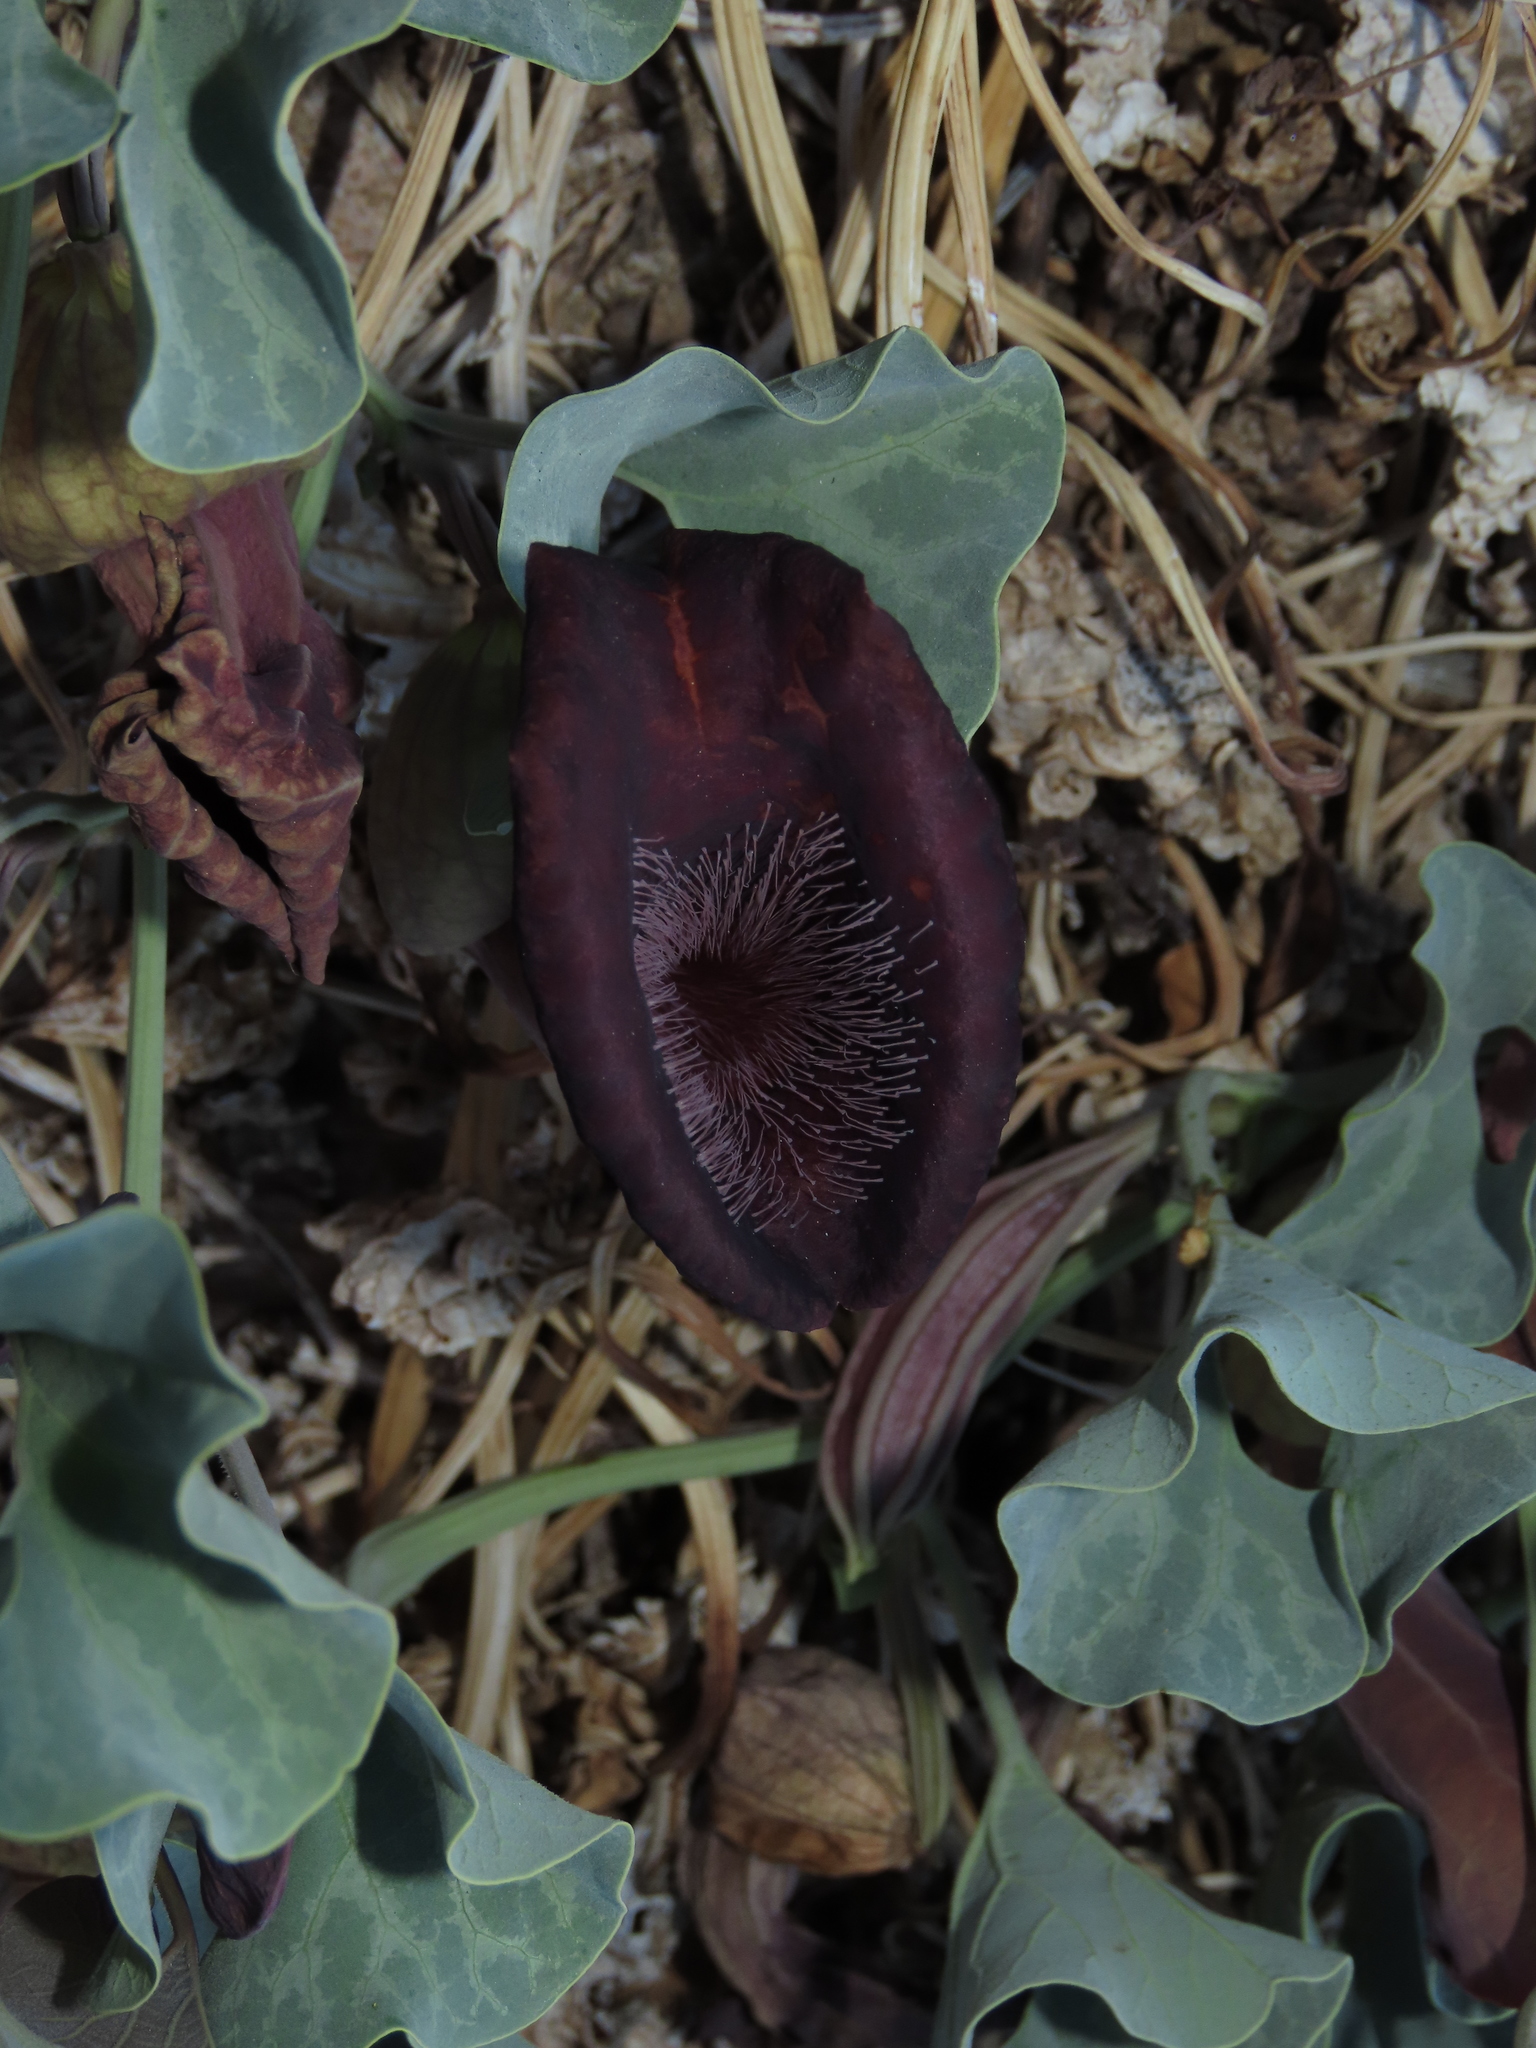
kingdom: Plantae
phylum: Tracheophyta
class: Magnoliopsida
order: Piperales
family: Aristolochiaceae
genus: Aristolochia
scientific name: Aristolochia chilensis
